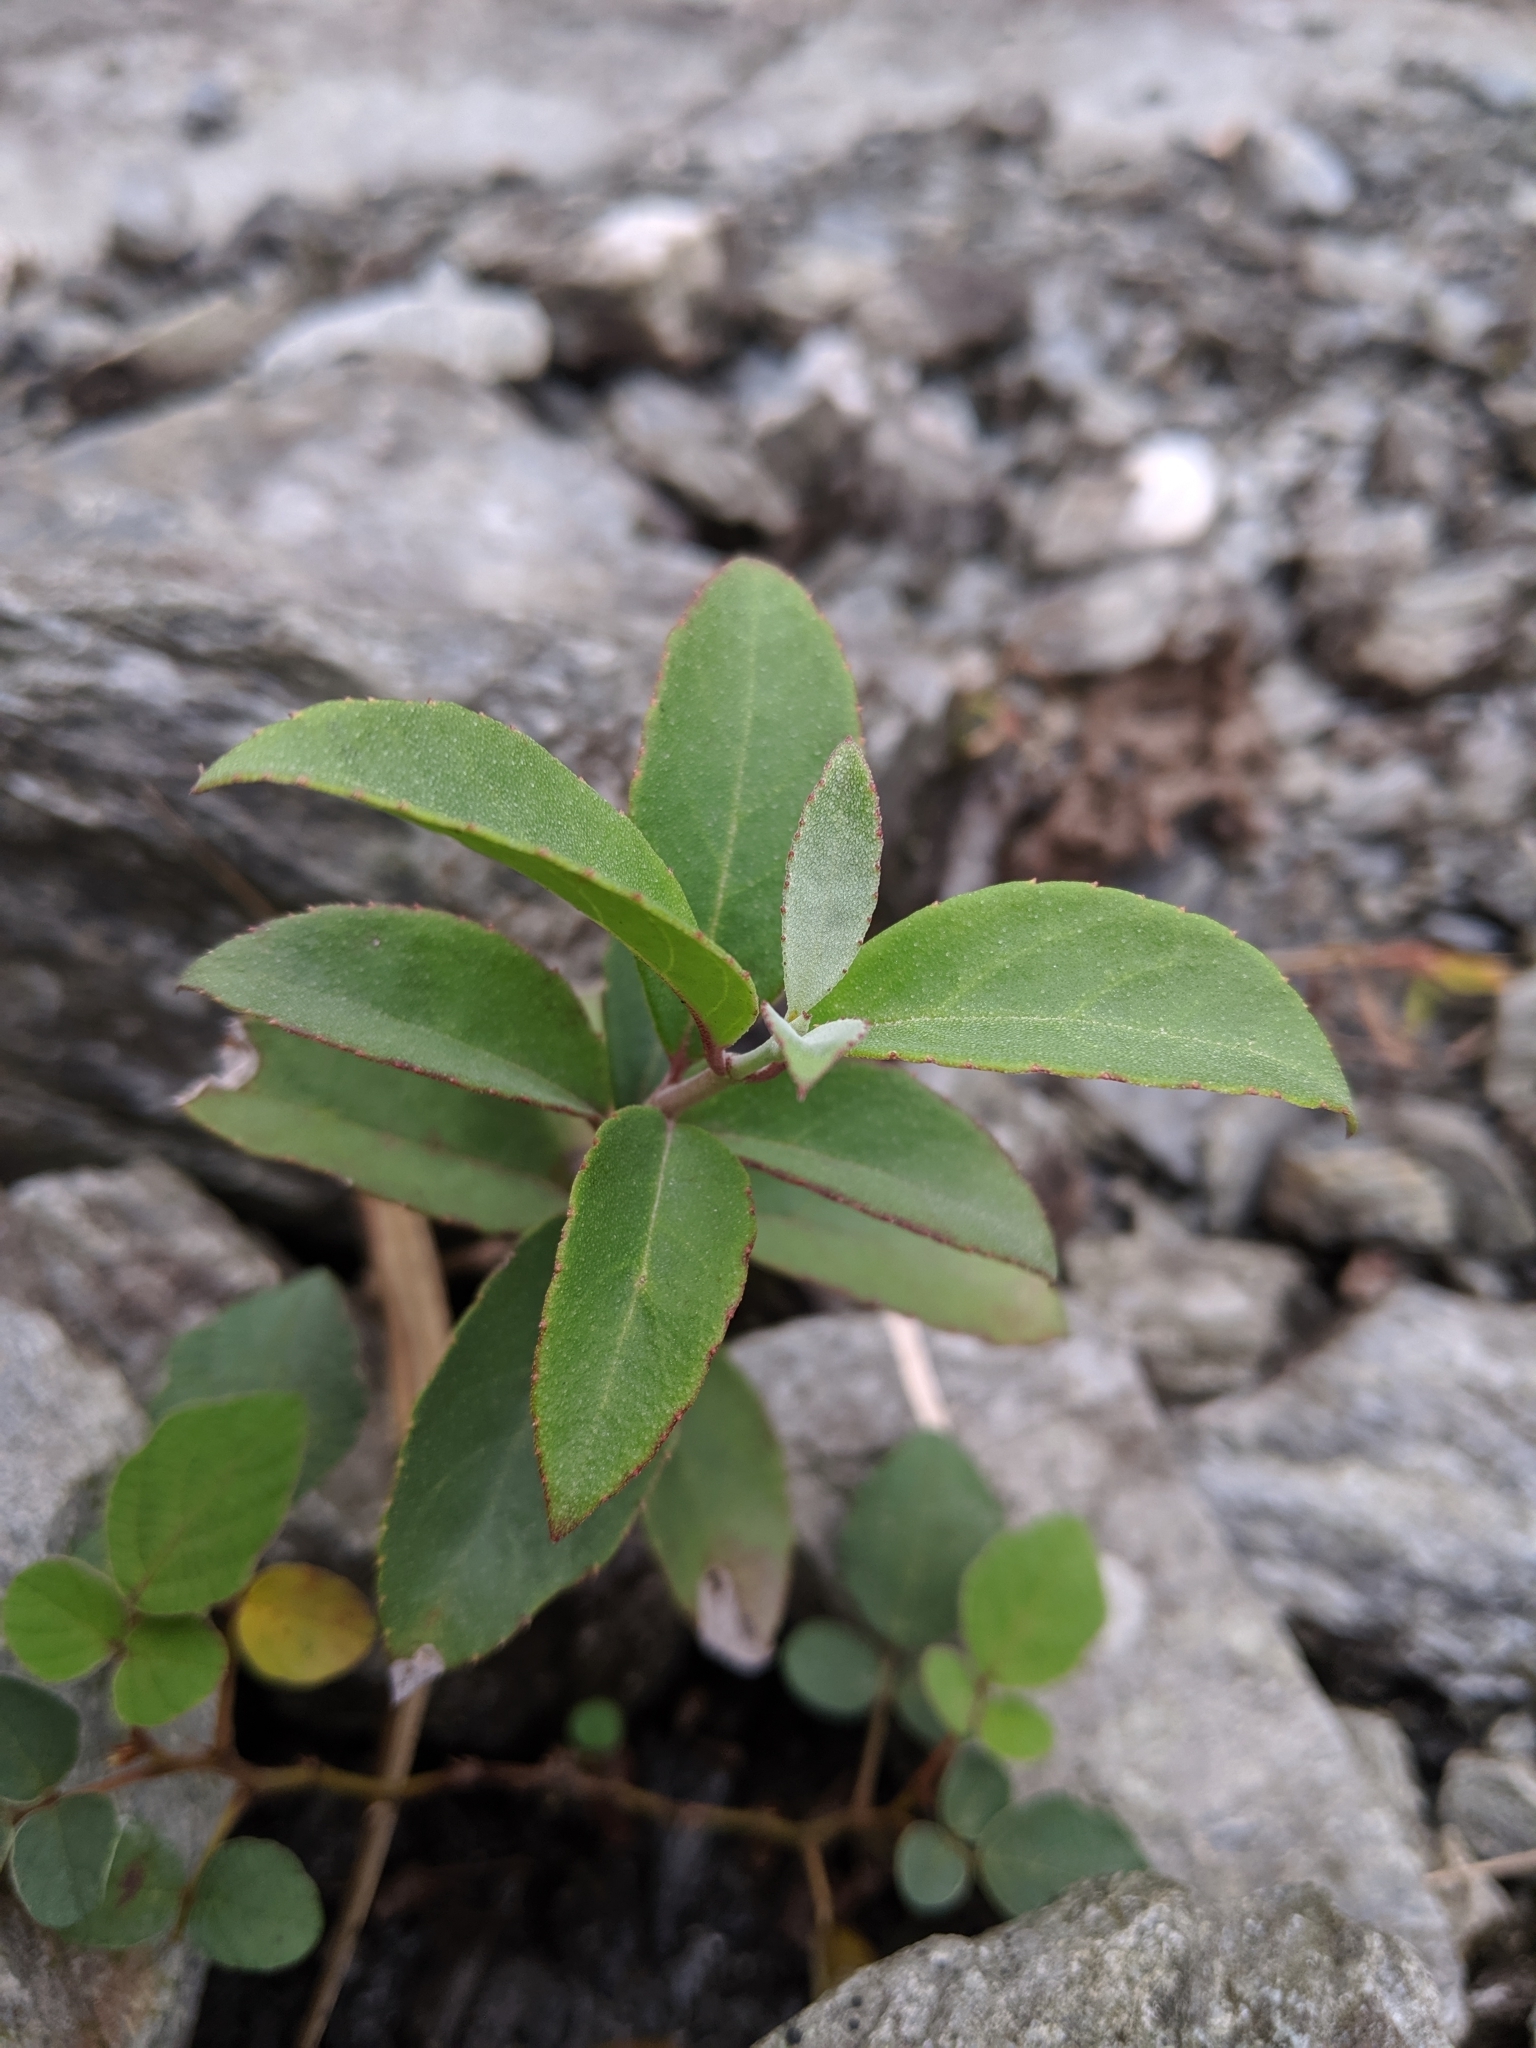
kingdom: Plantae
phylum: Tracheophyta
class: Magnoliopsida
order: Cornales
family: Hydrangeaceae
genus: Deutzia
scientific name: Deutzia pulchra
